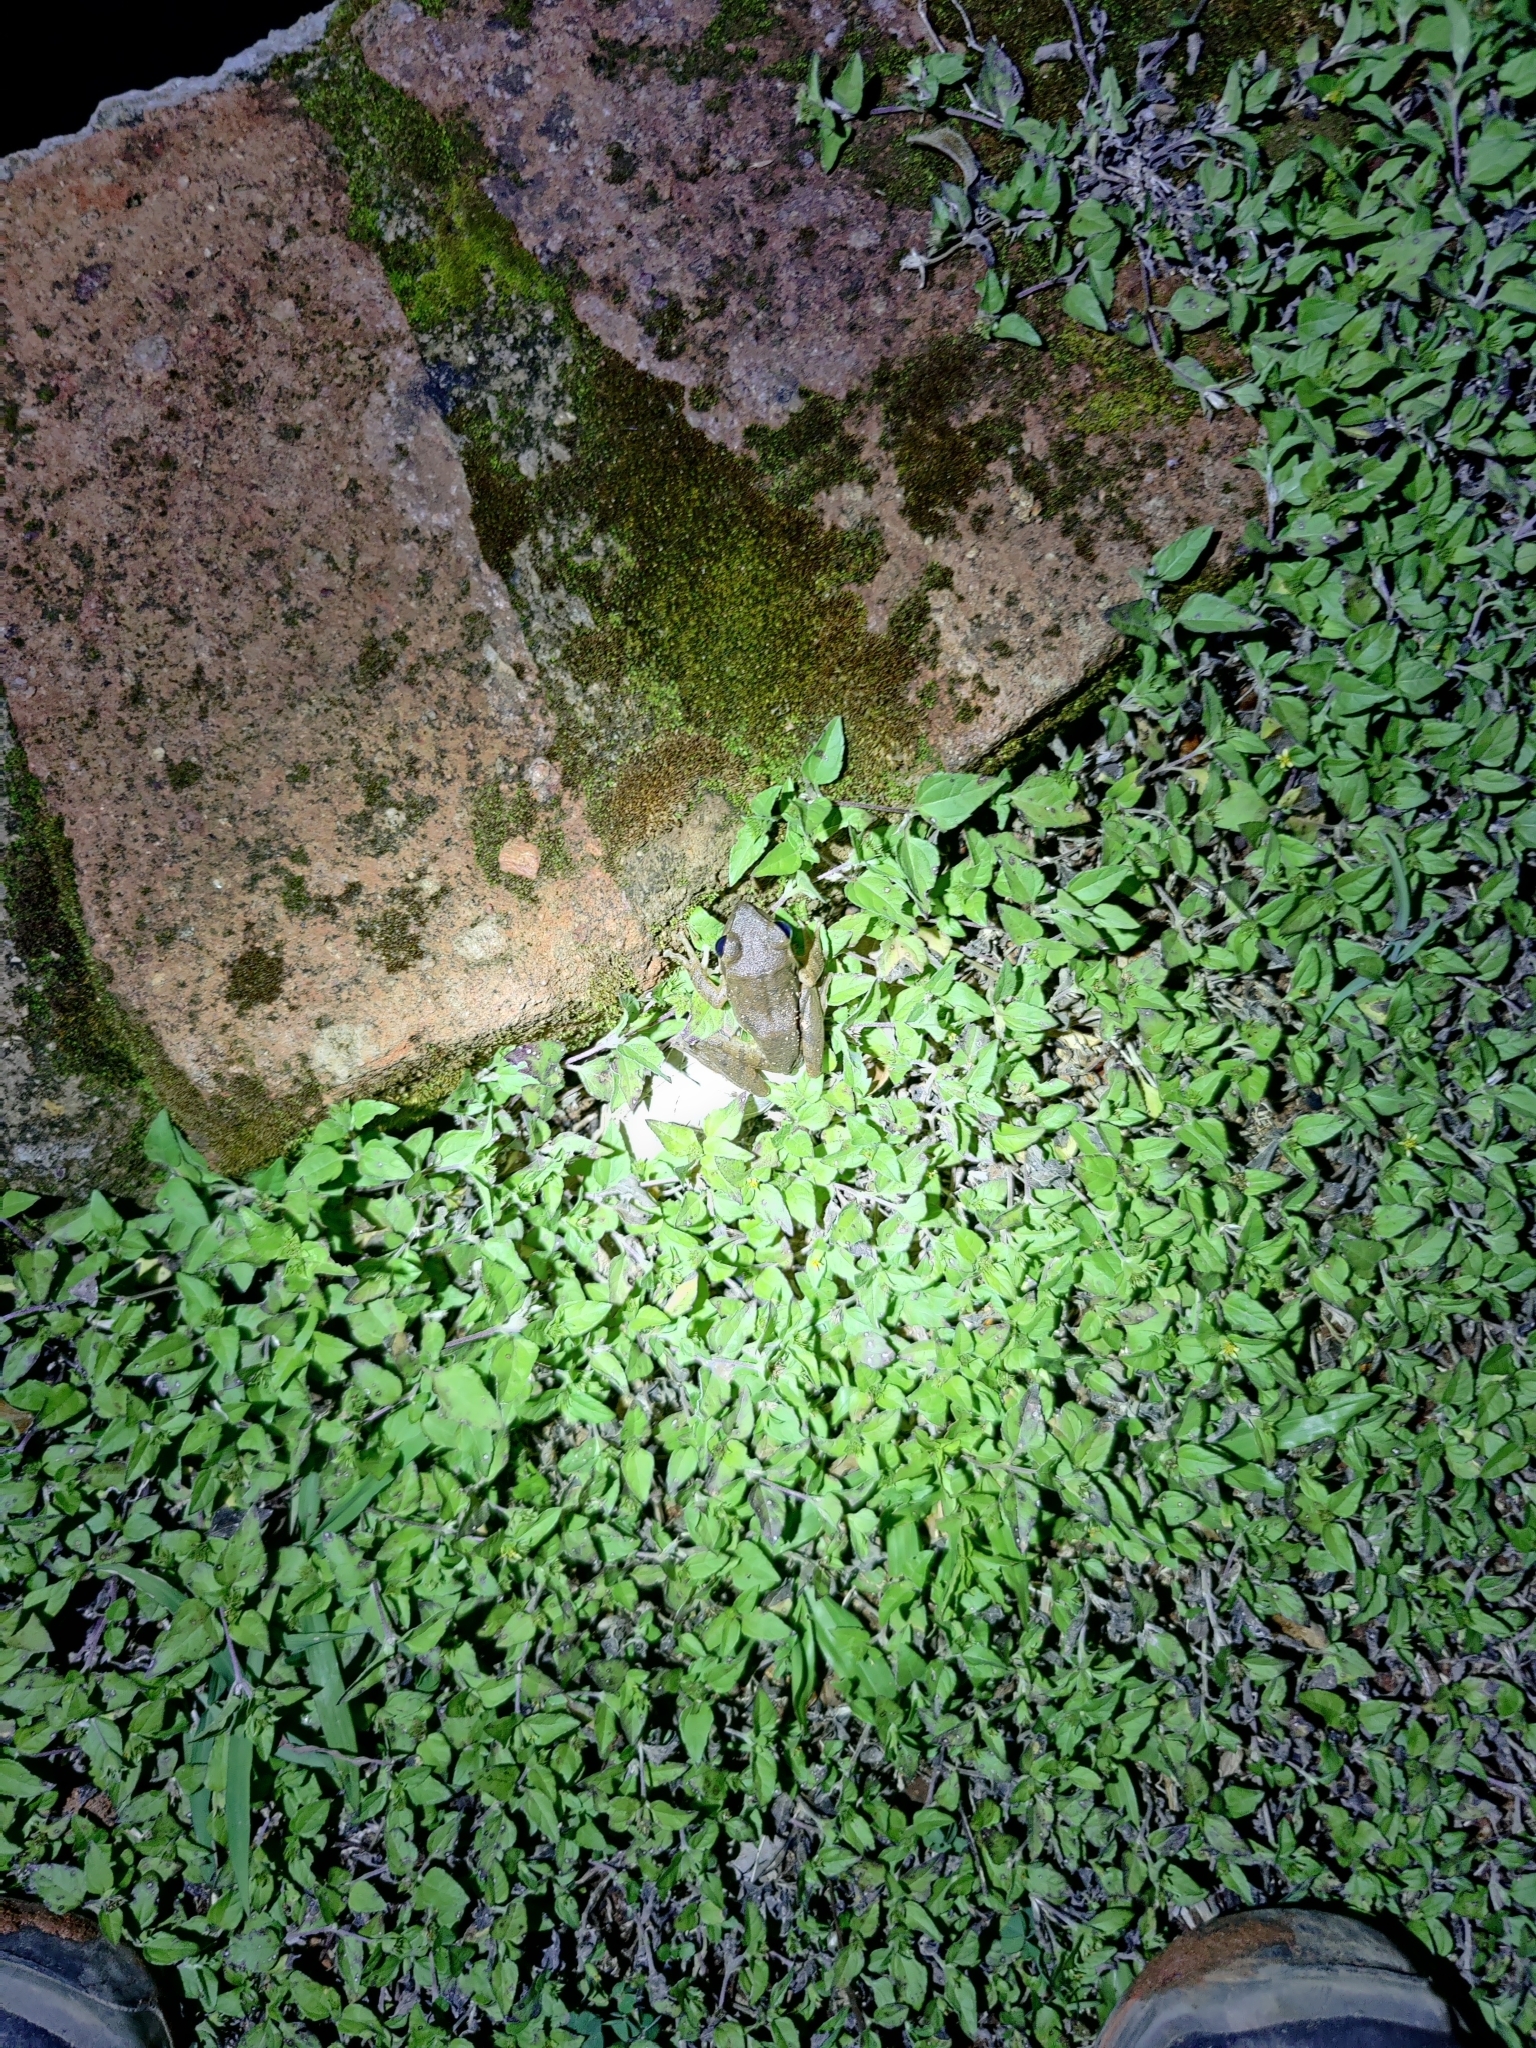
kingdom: Animalia
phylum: Chordata
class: Amphibia
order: Anura
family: Rhacophoridae
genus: Polypedates
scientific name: Polypedates maculatus
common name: Himalayan tree frog
